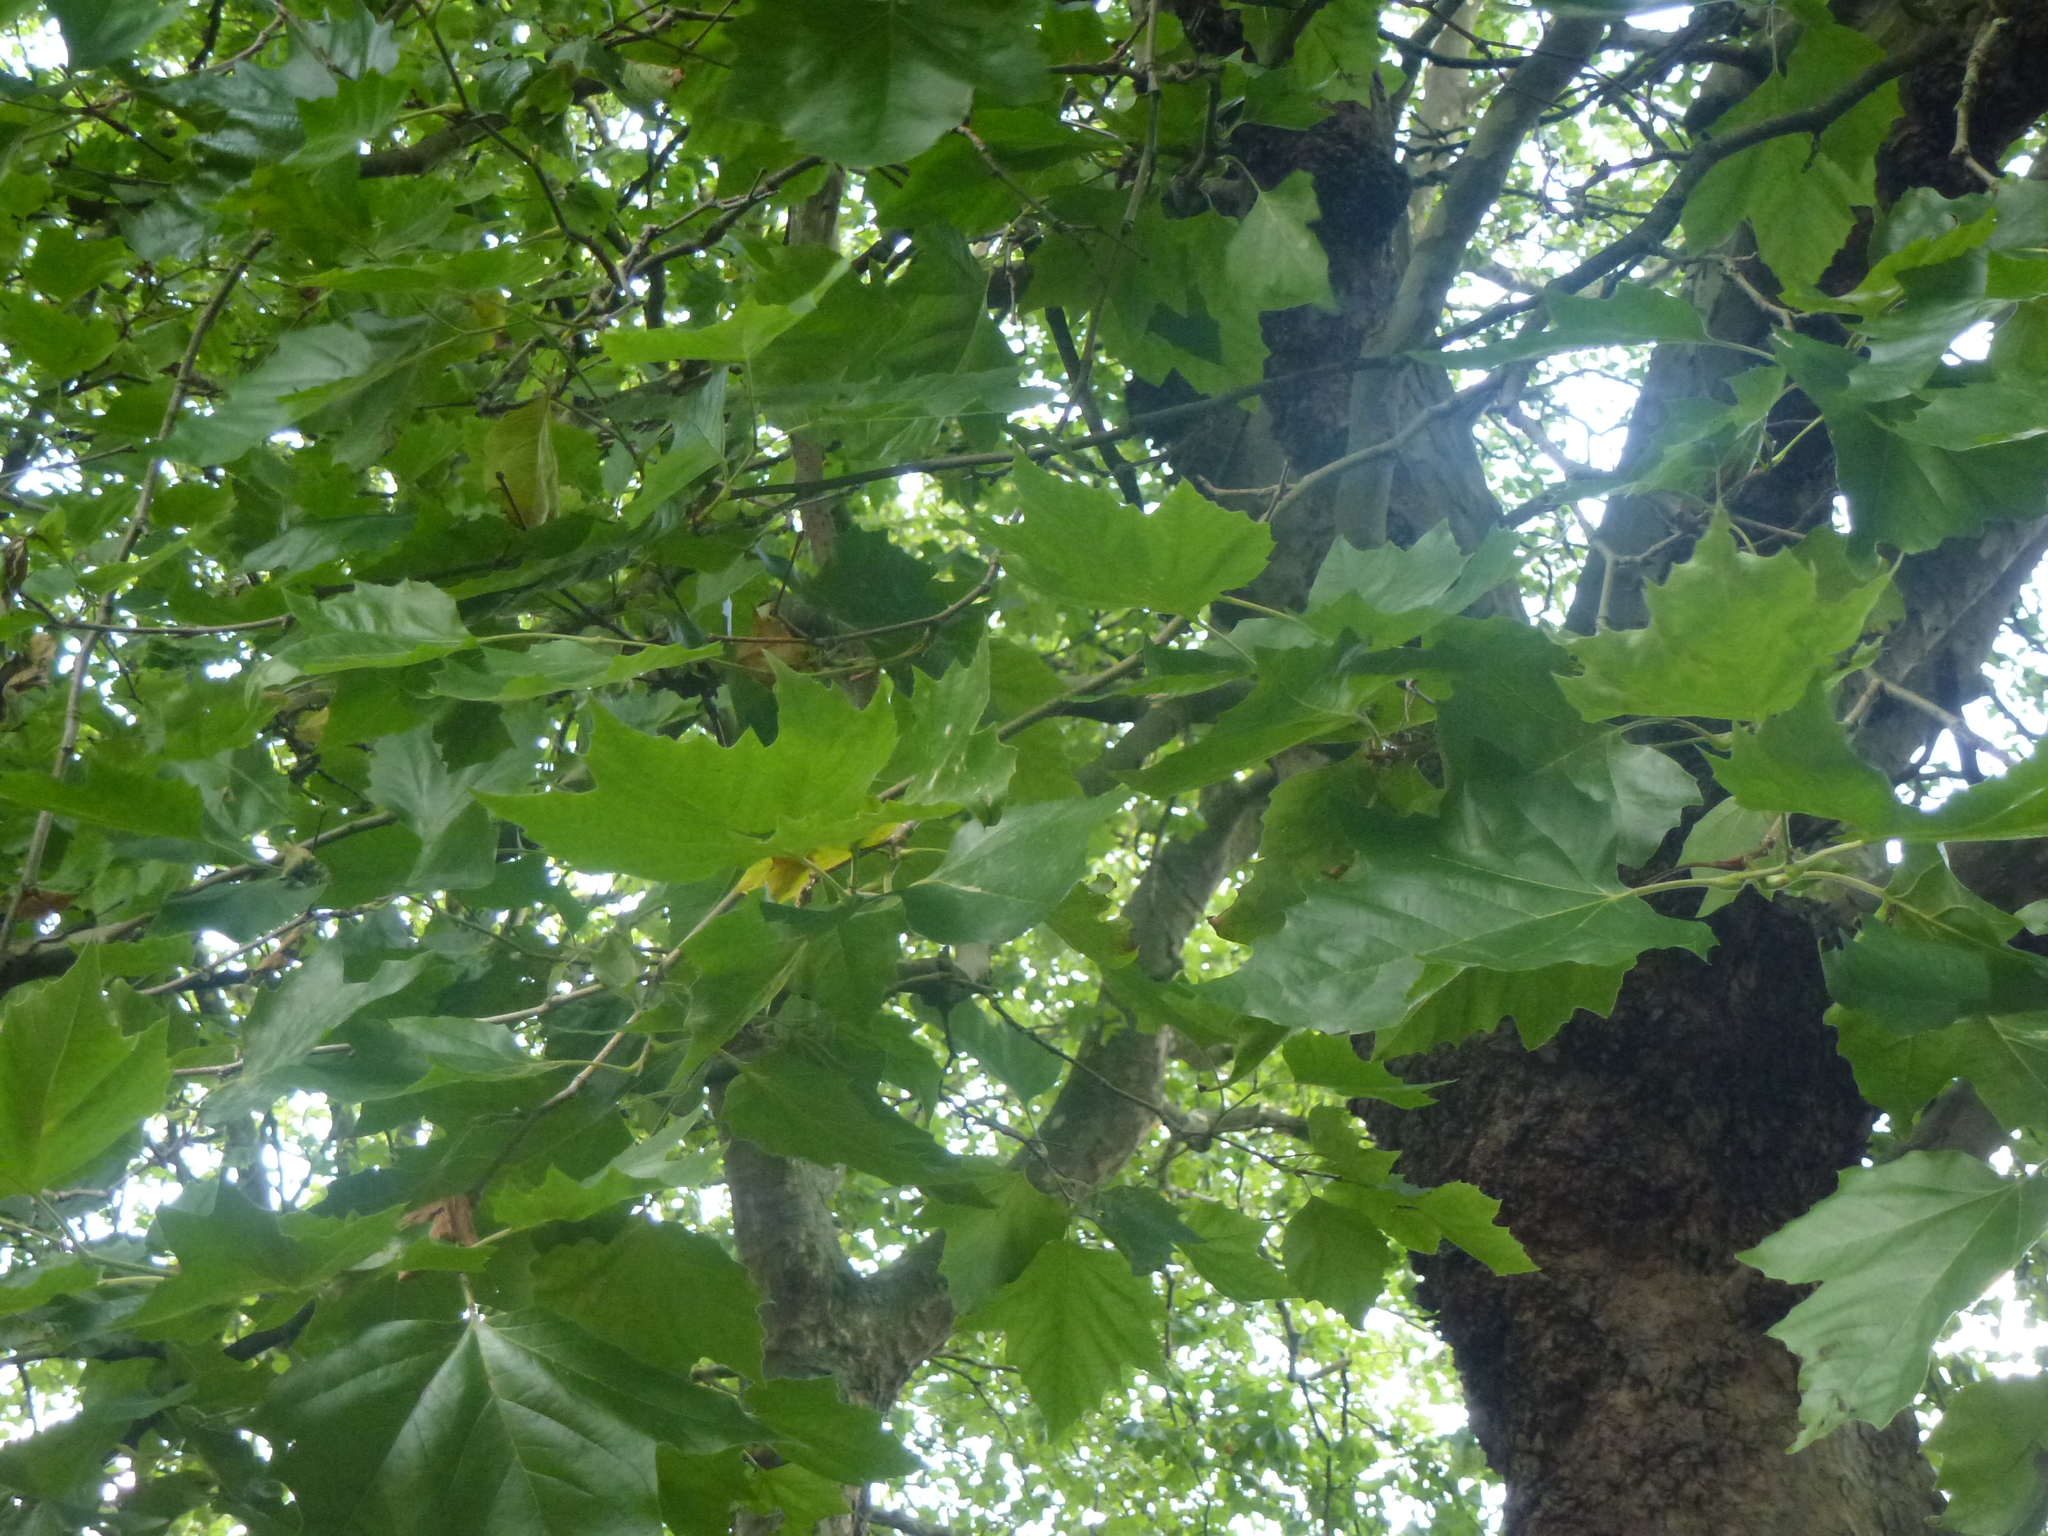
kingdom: Plantae
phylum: Tracheophyta
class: Magnoliopsida
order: Proteales
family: Platanaceae
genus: Platanus
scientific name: Platanus hispanica
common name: London plane
